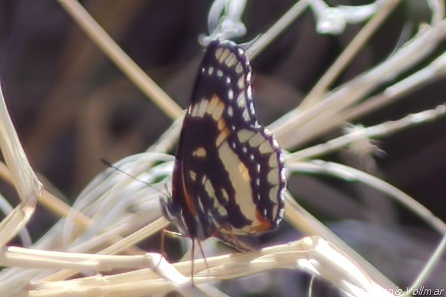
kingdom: Animalia
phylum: Arthropoda
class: Insecta
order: Lepidoptera
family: Nymphalidae
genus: Chlosyne
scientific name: Chlosyne lacinia
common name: Bordered patch
